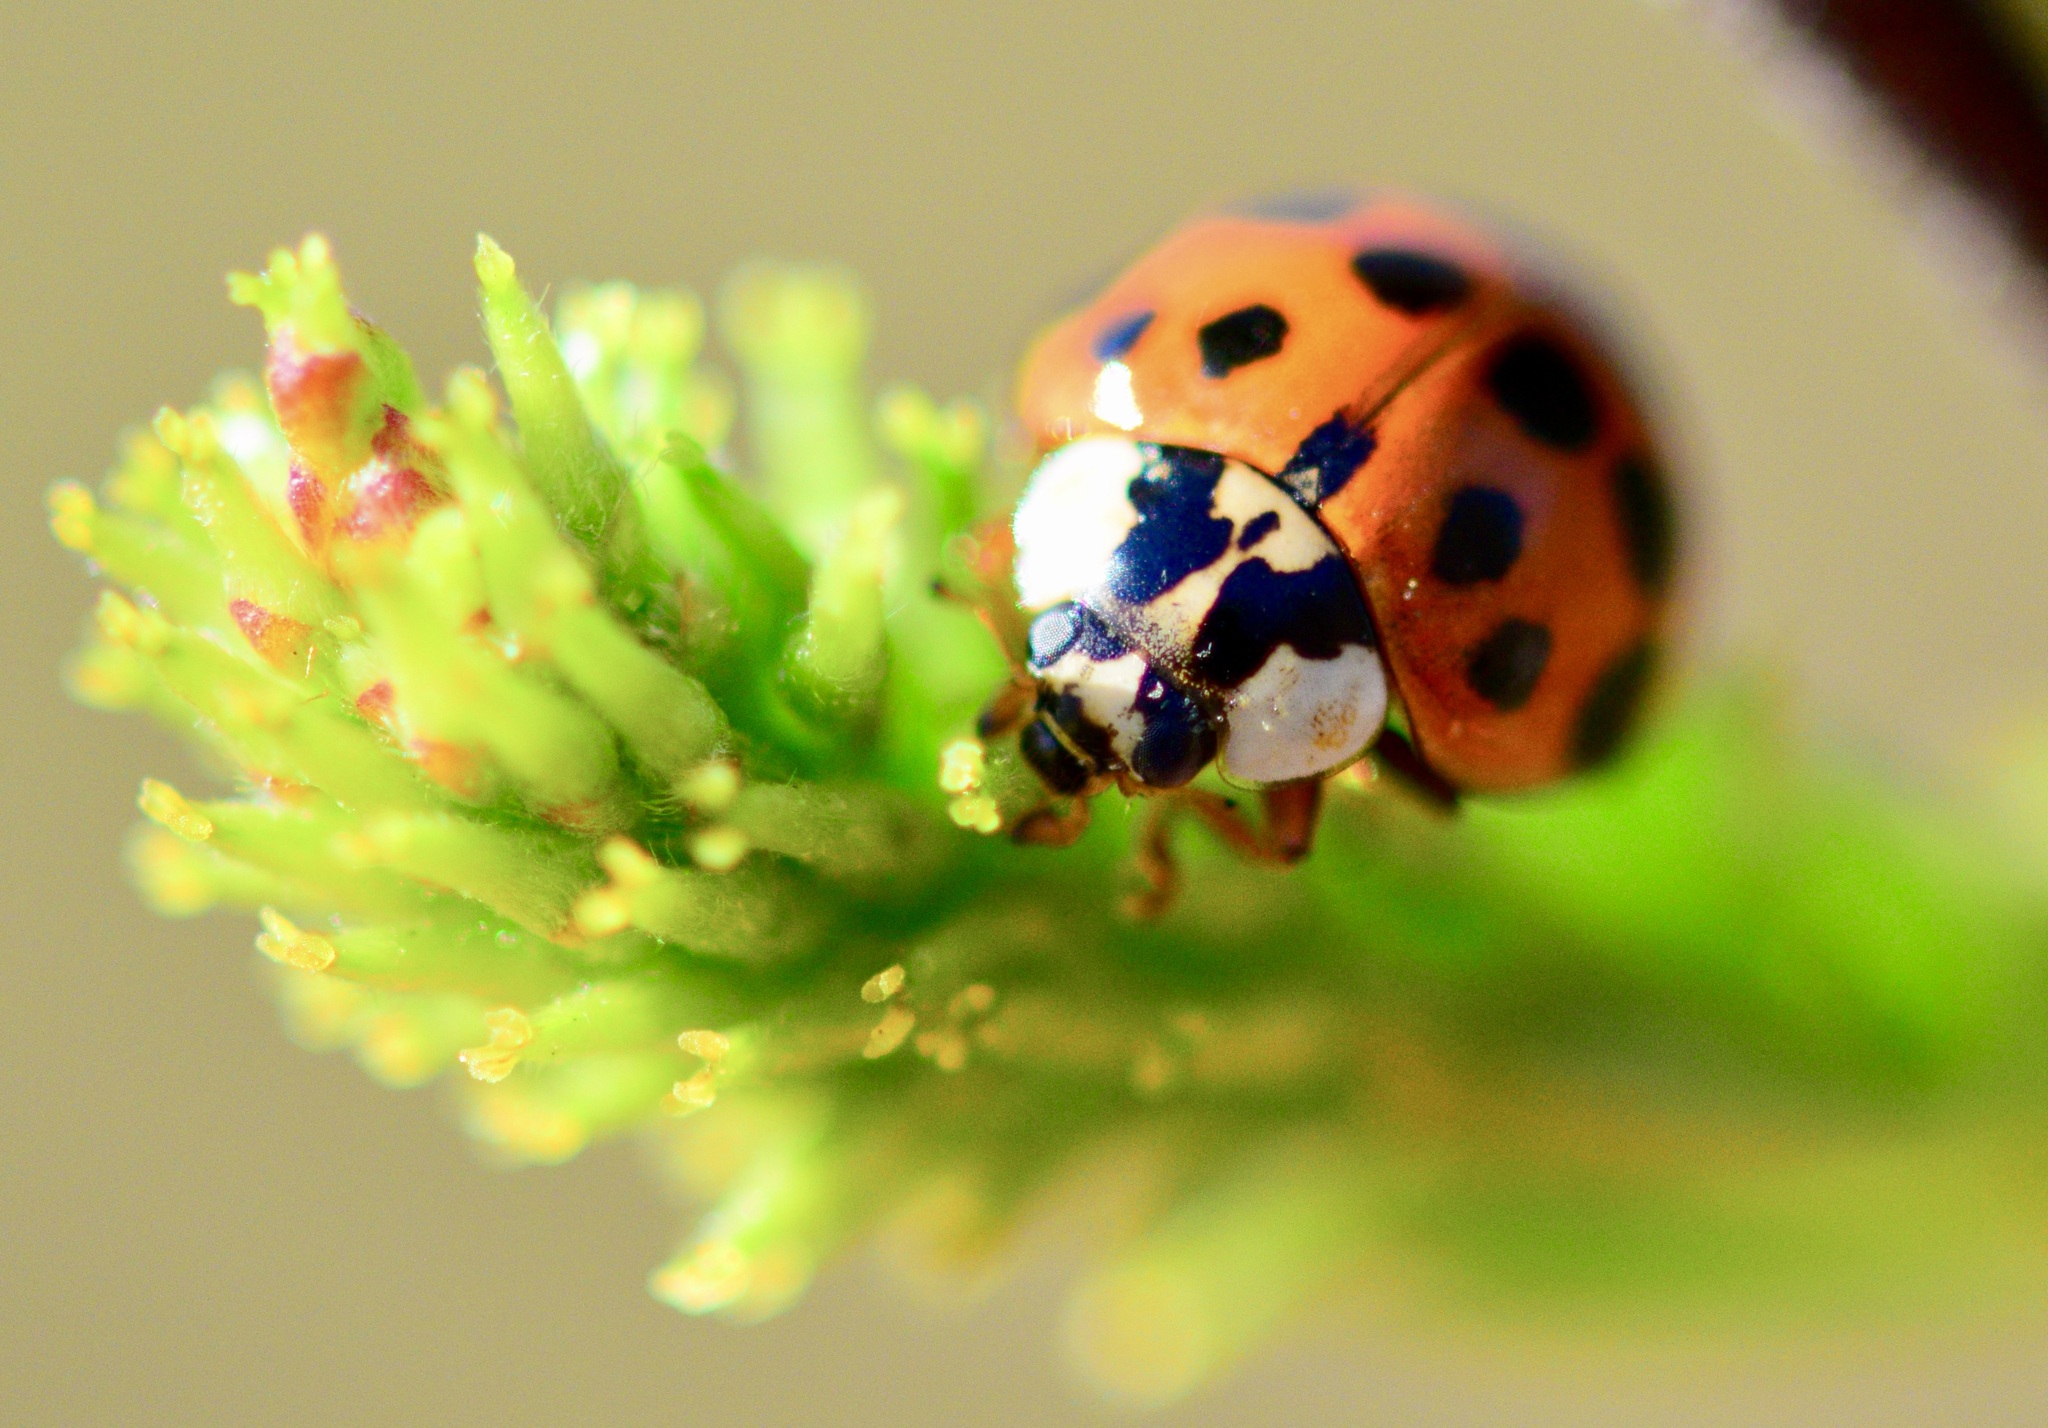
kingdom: Animalia
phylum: Arthropoda
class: Insecta
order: Coleoptera
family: Coccinellidae
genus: Harmonia
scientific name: Harmonia axyridis
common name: Harlequin ladybird
